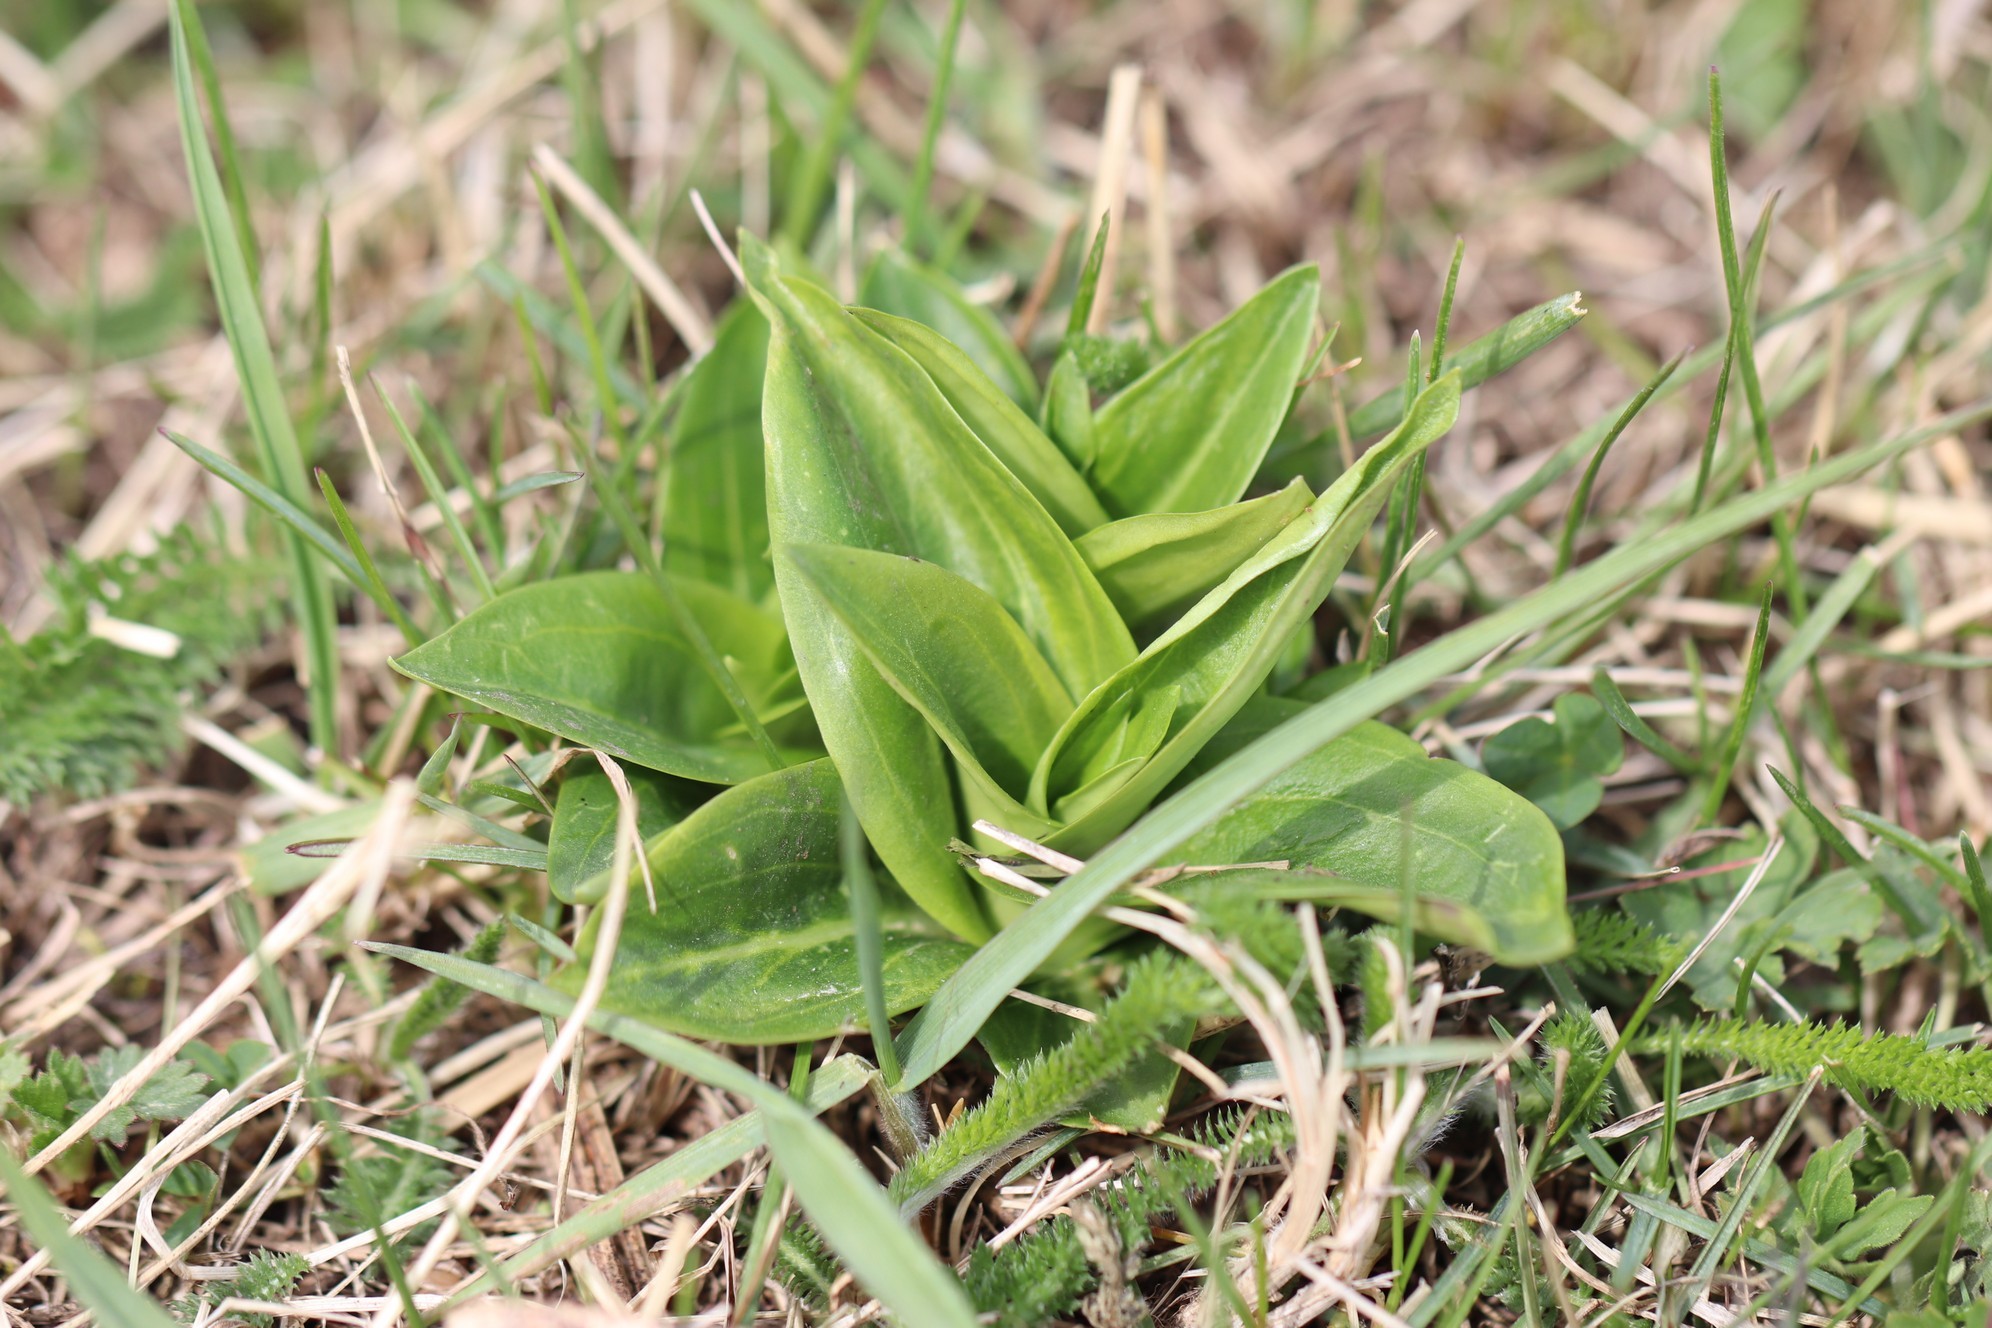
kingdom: Plantae
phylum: Tracheophyta
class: Magnoliopsida
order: Gentianales
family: Gentianaceae
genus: Gentiana
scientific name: Gentiana macrophylla
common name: Large-leaf gentian
